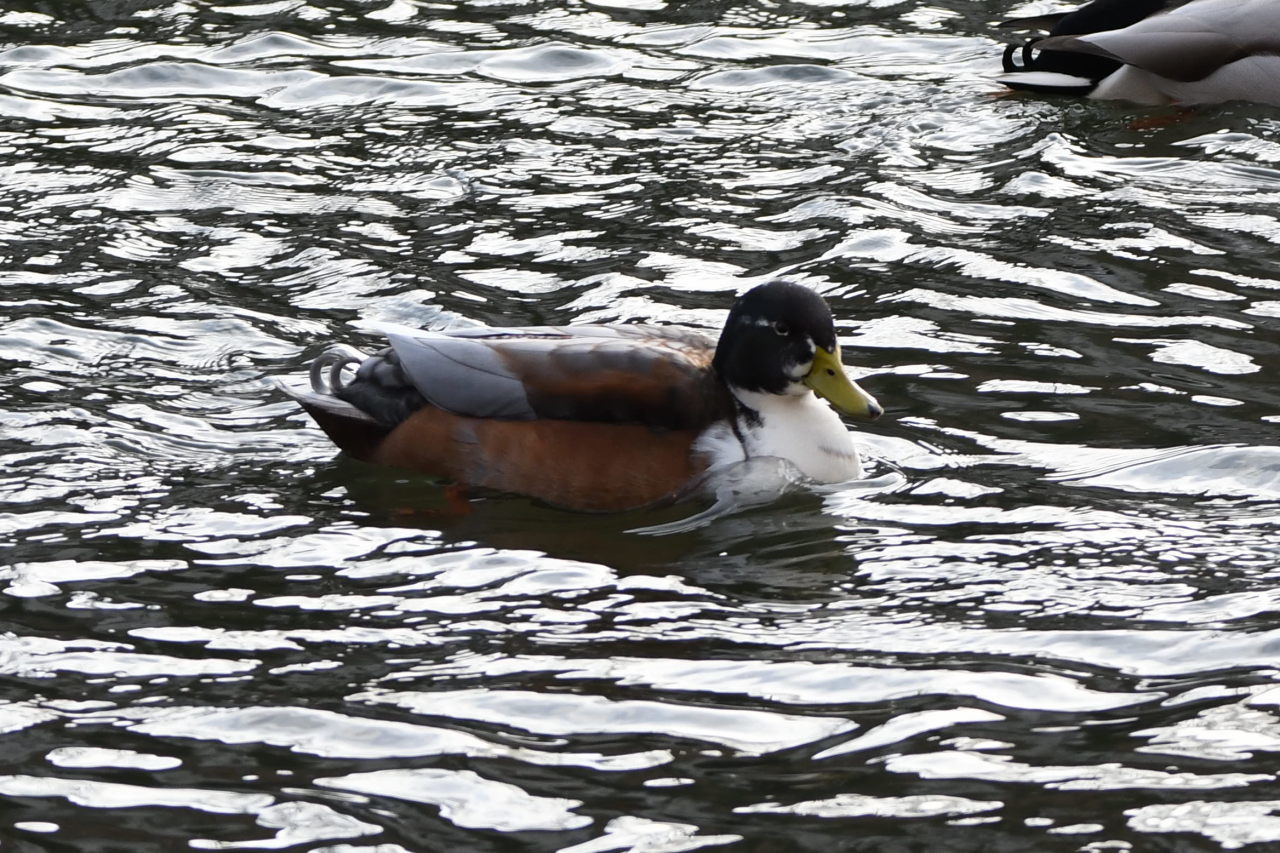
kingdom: Animalia
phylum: Chordata
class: Aves
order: Anseriformes
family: Anatidae
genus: Anas
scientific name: Anas platyrhynchos
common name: Mallard
